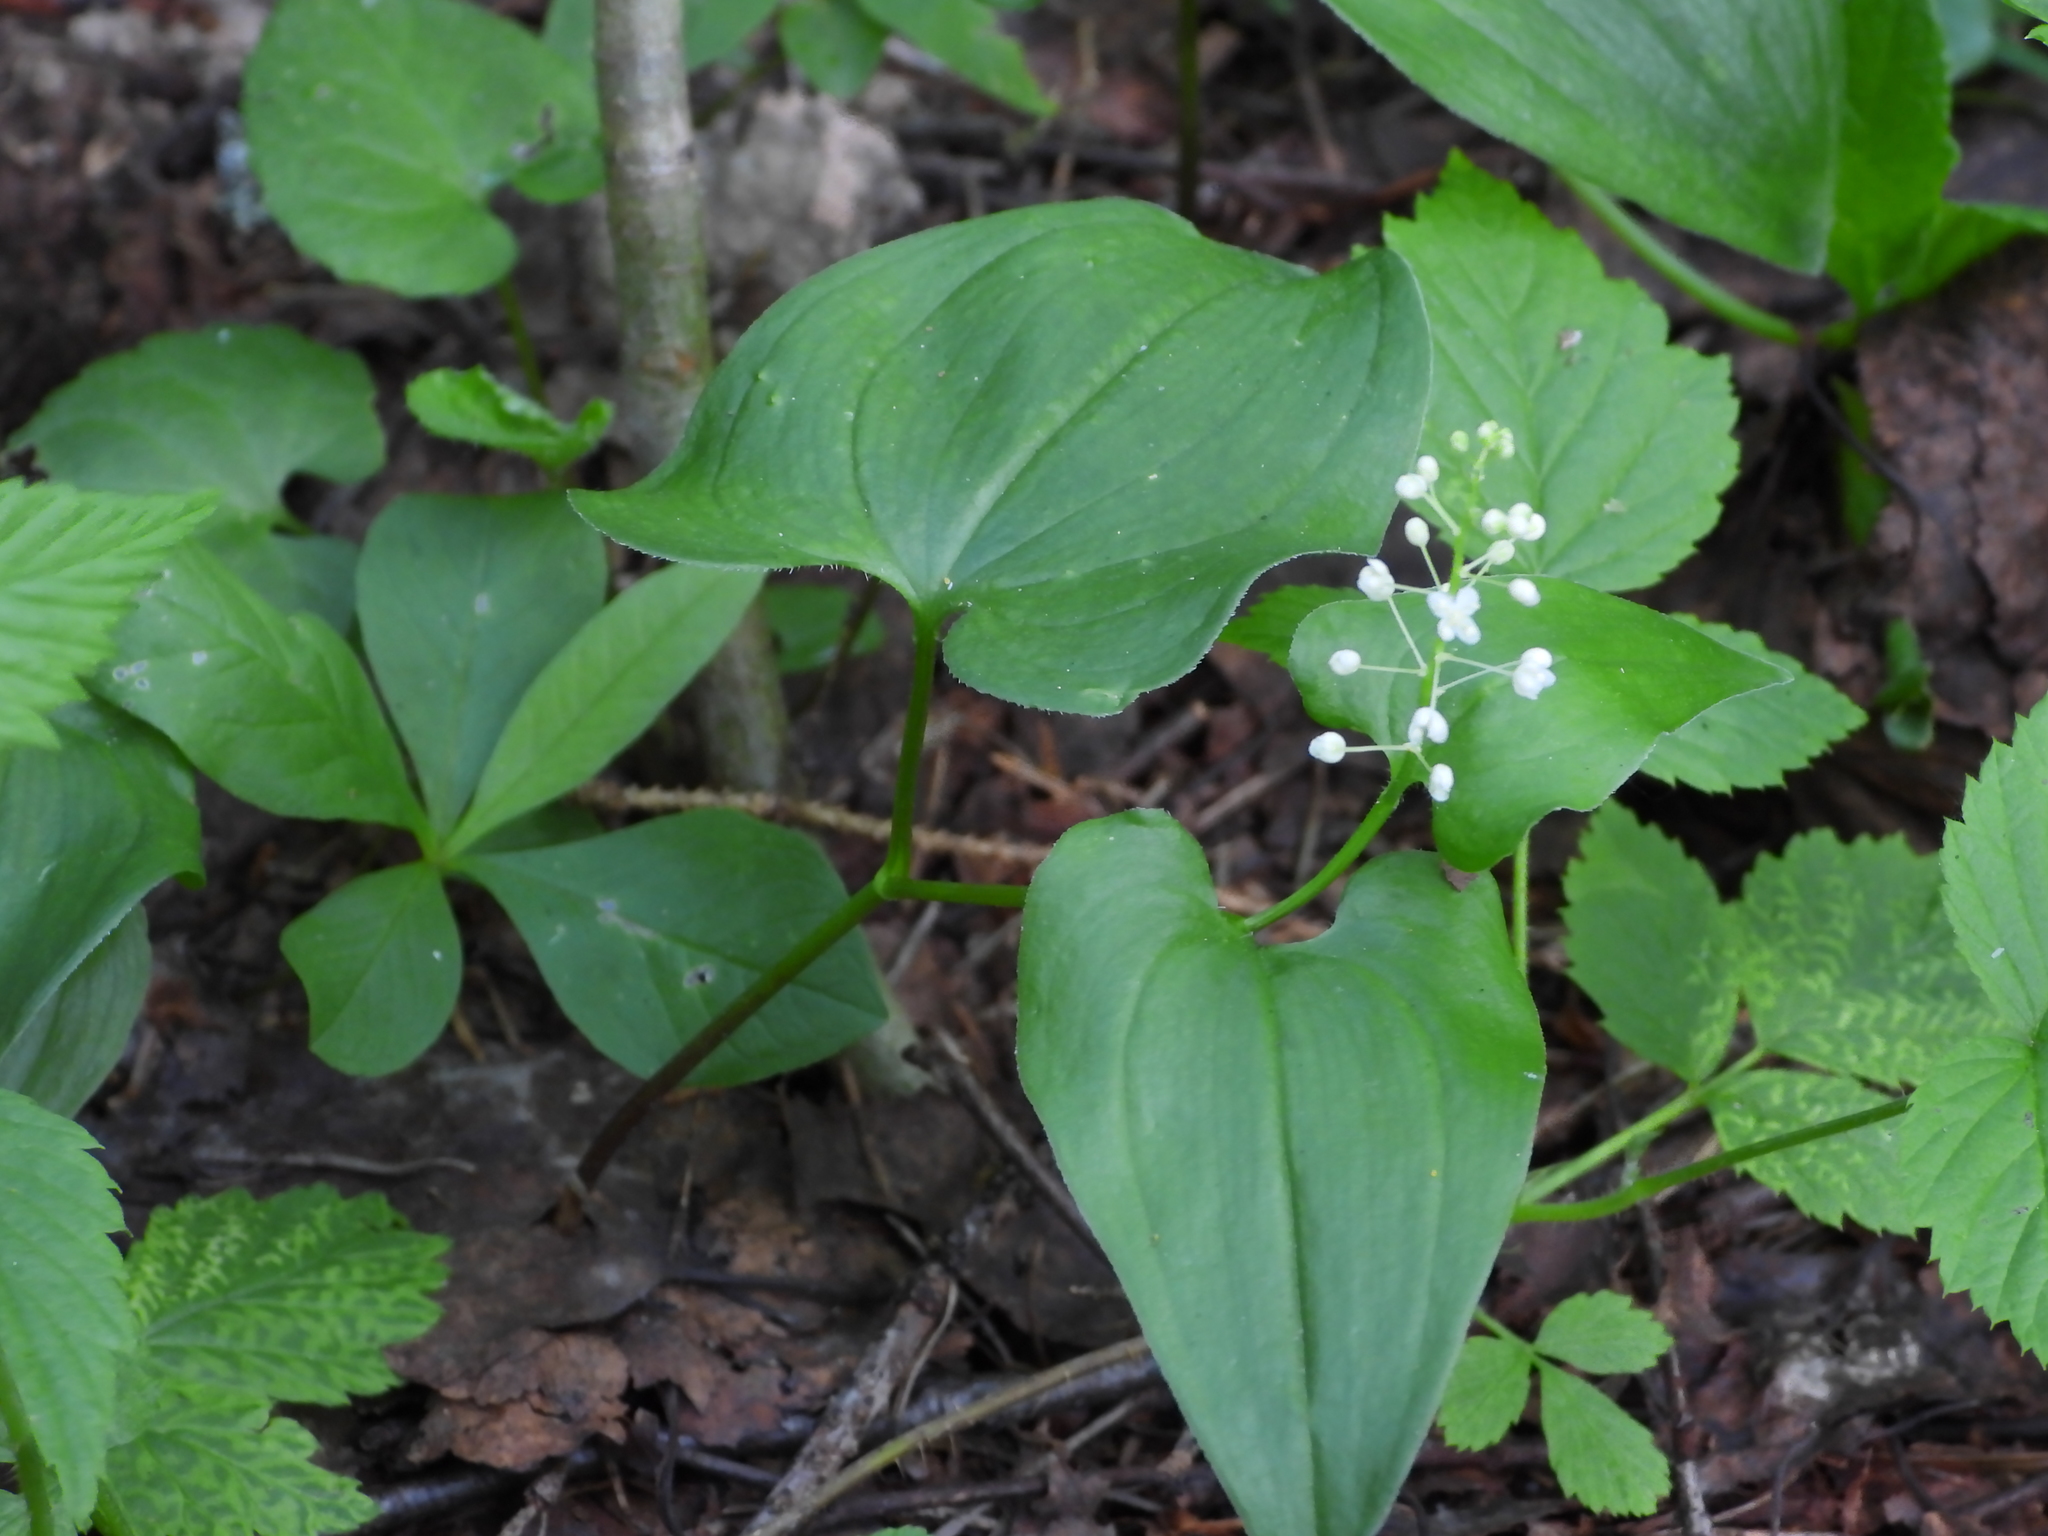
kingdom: Plantae
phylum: Tracheophyta
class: Liliopsida
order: Asparagales
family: Asparagaceae
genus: Maianthemum
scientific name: Maianthemum bifolium
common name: May lily
